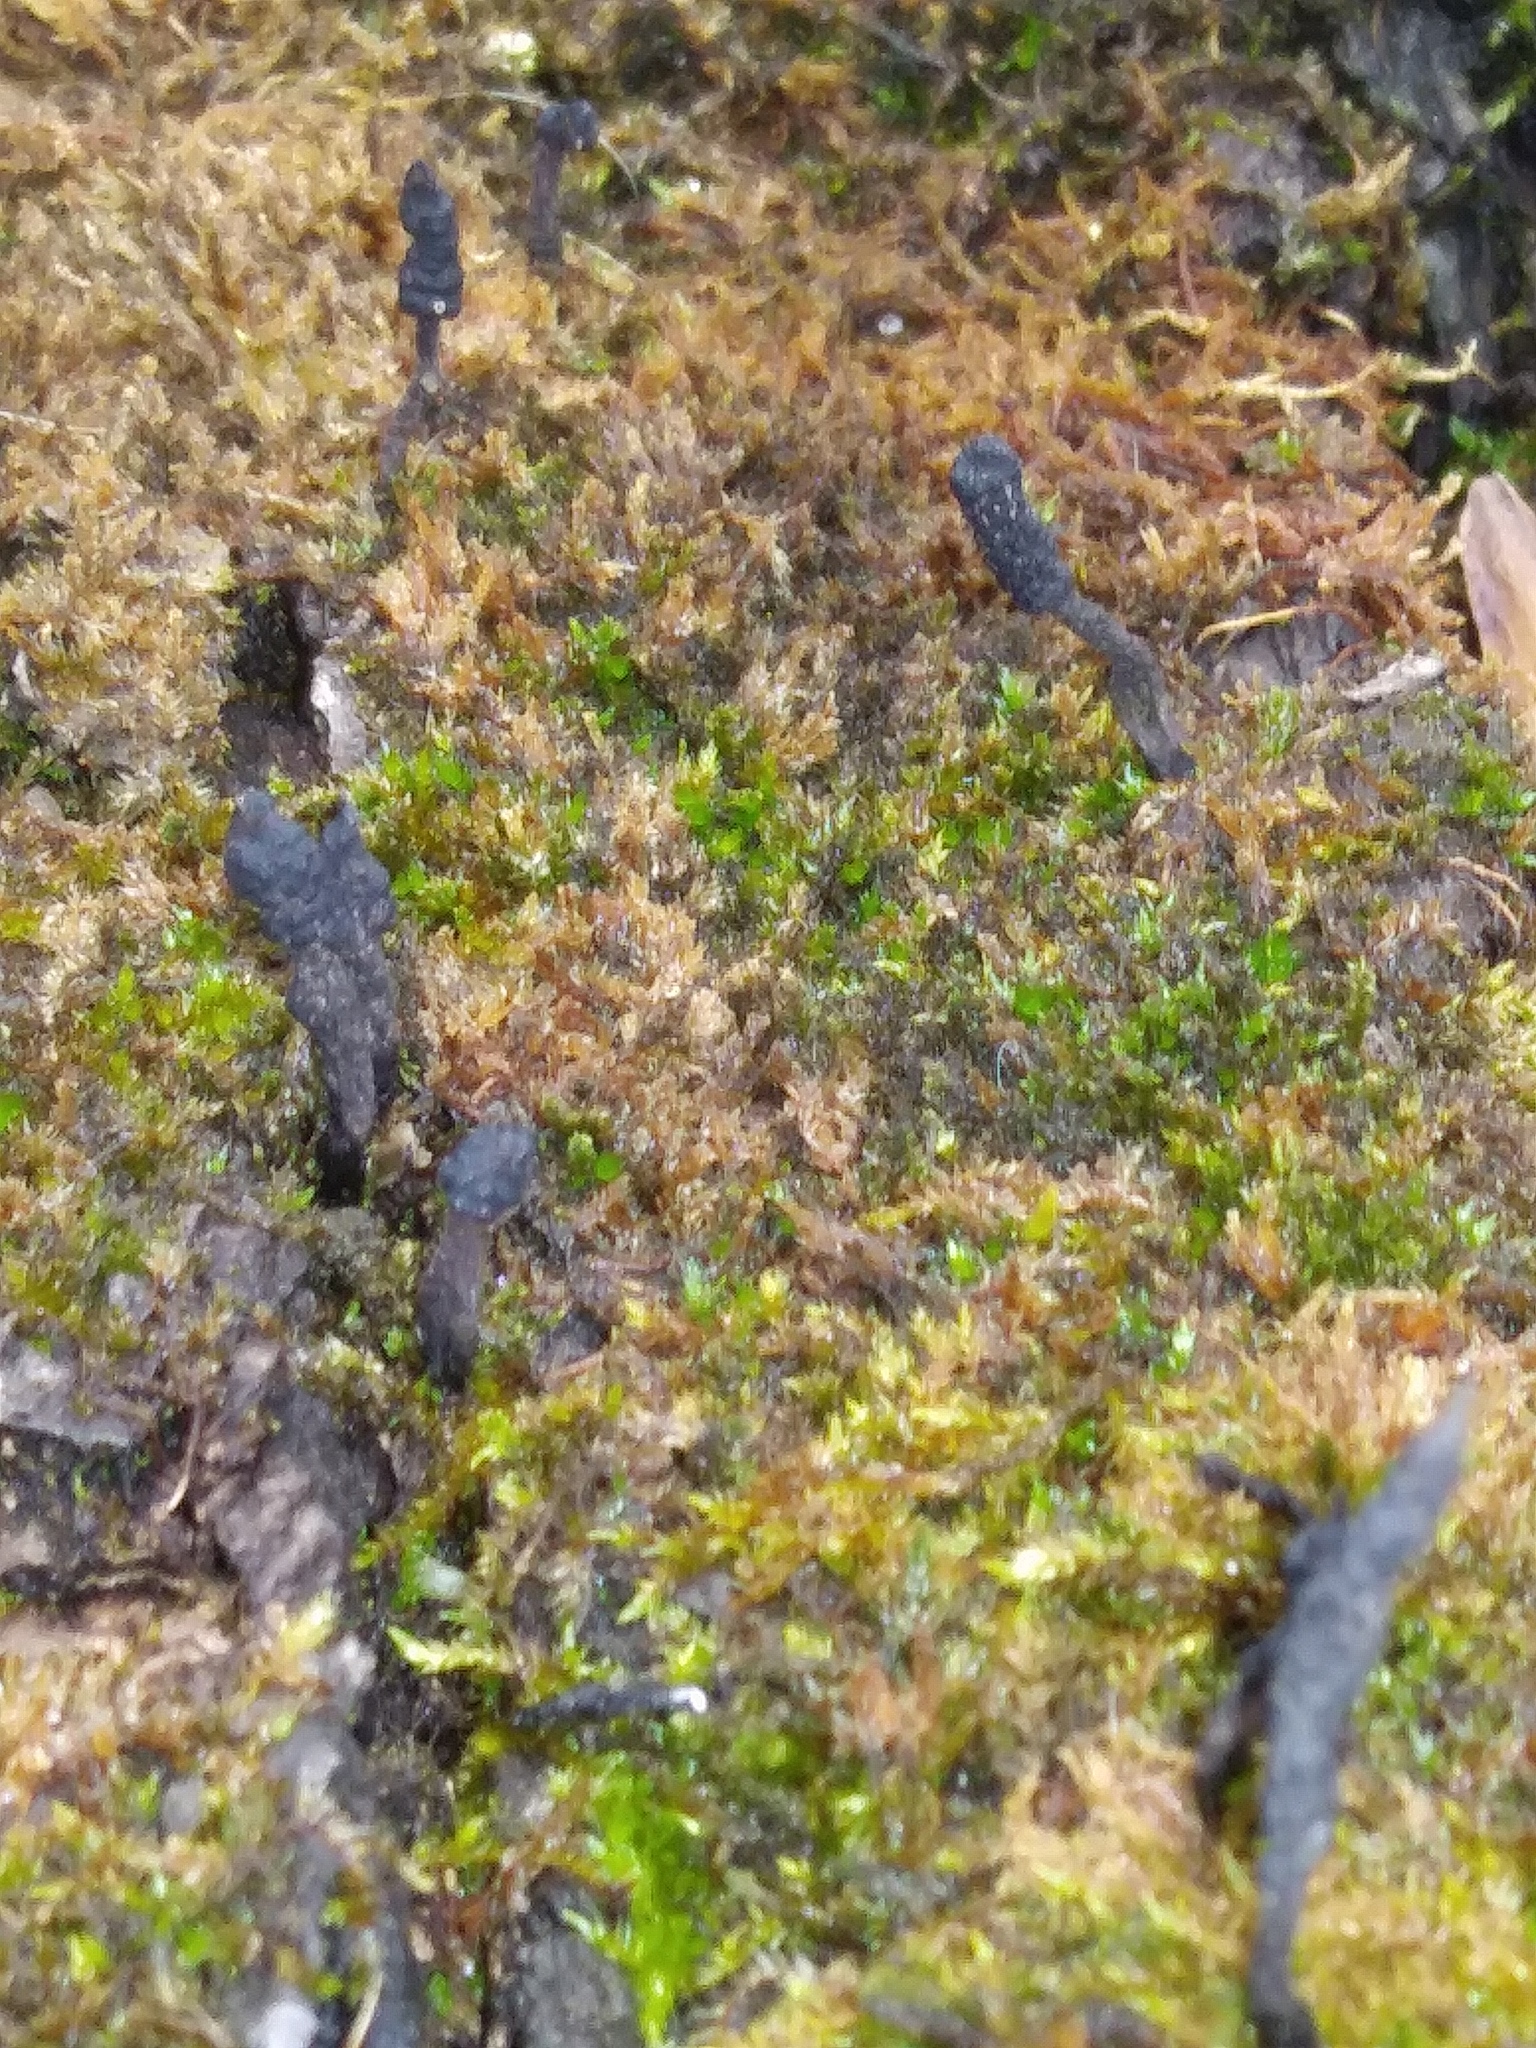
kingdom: Fungi
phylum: Ascomycota
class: Sordariomycetes
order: Xylariales
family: Xylariaceae
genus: Xylaria
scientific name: Xylaria longipes
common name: Dead moll's fingers
